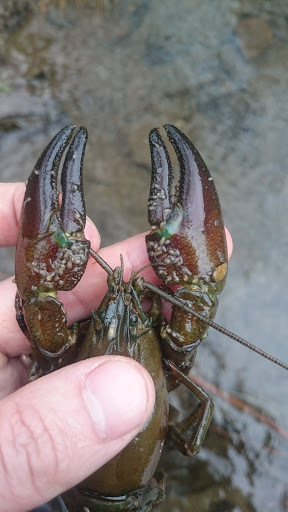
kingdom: Animalia
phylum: Arthropoda
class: Malacostraca
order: Decapoda
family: Astacidae
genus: Pacifastacus
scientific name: Pacifastacus leniusculus
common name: Signal crayfish
